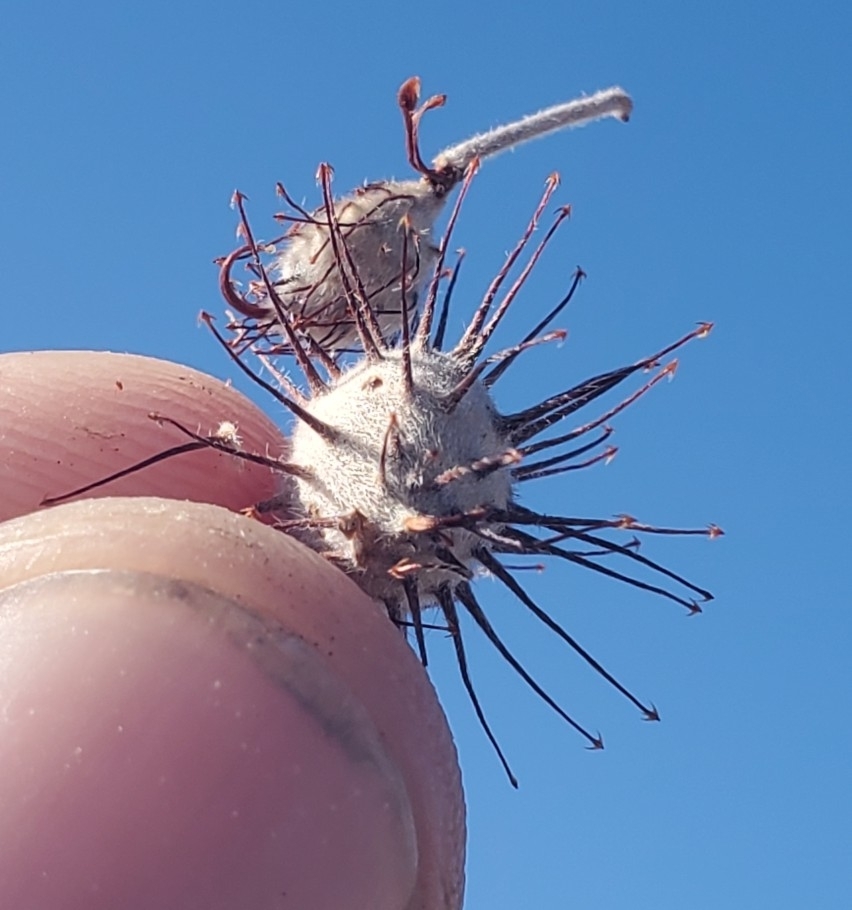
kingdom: Plantae
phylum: Tracheophyta
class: Magnoliopsida
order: Zygophyllales
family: Krameriaceae
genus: Krameria
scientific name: Krameria bicolor
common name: White ratany
